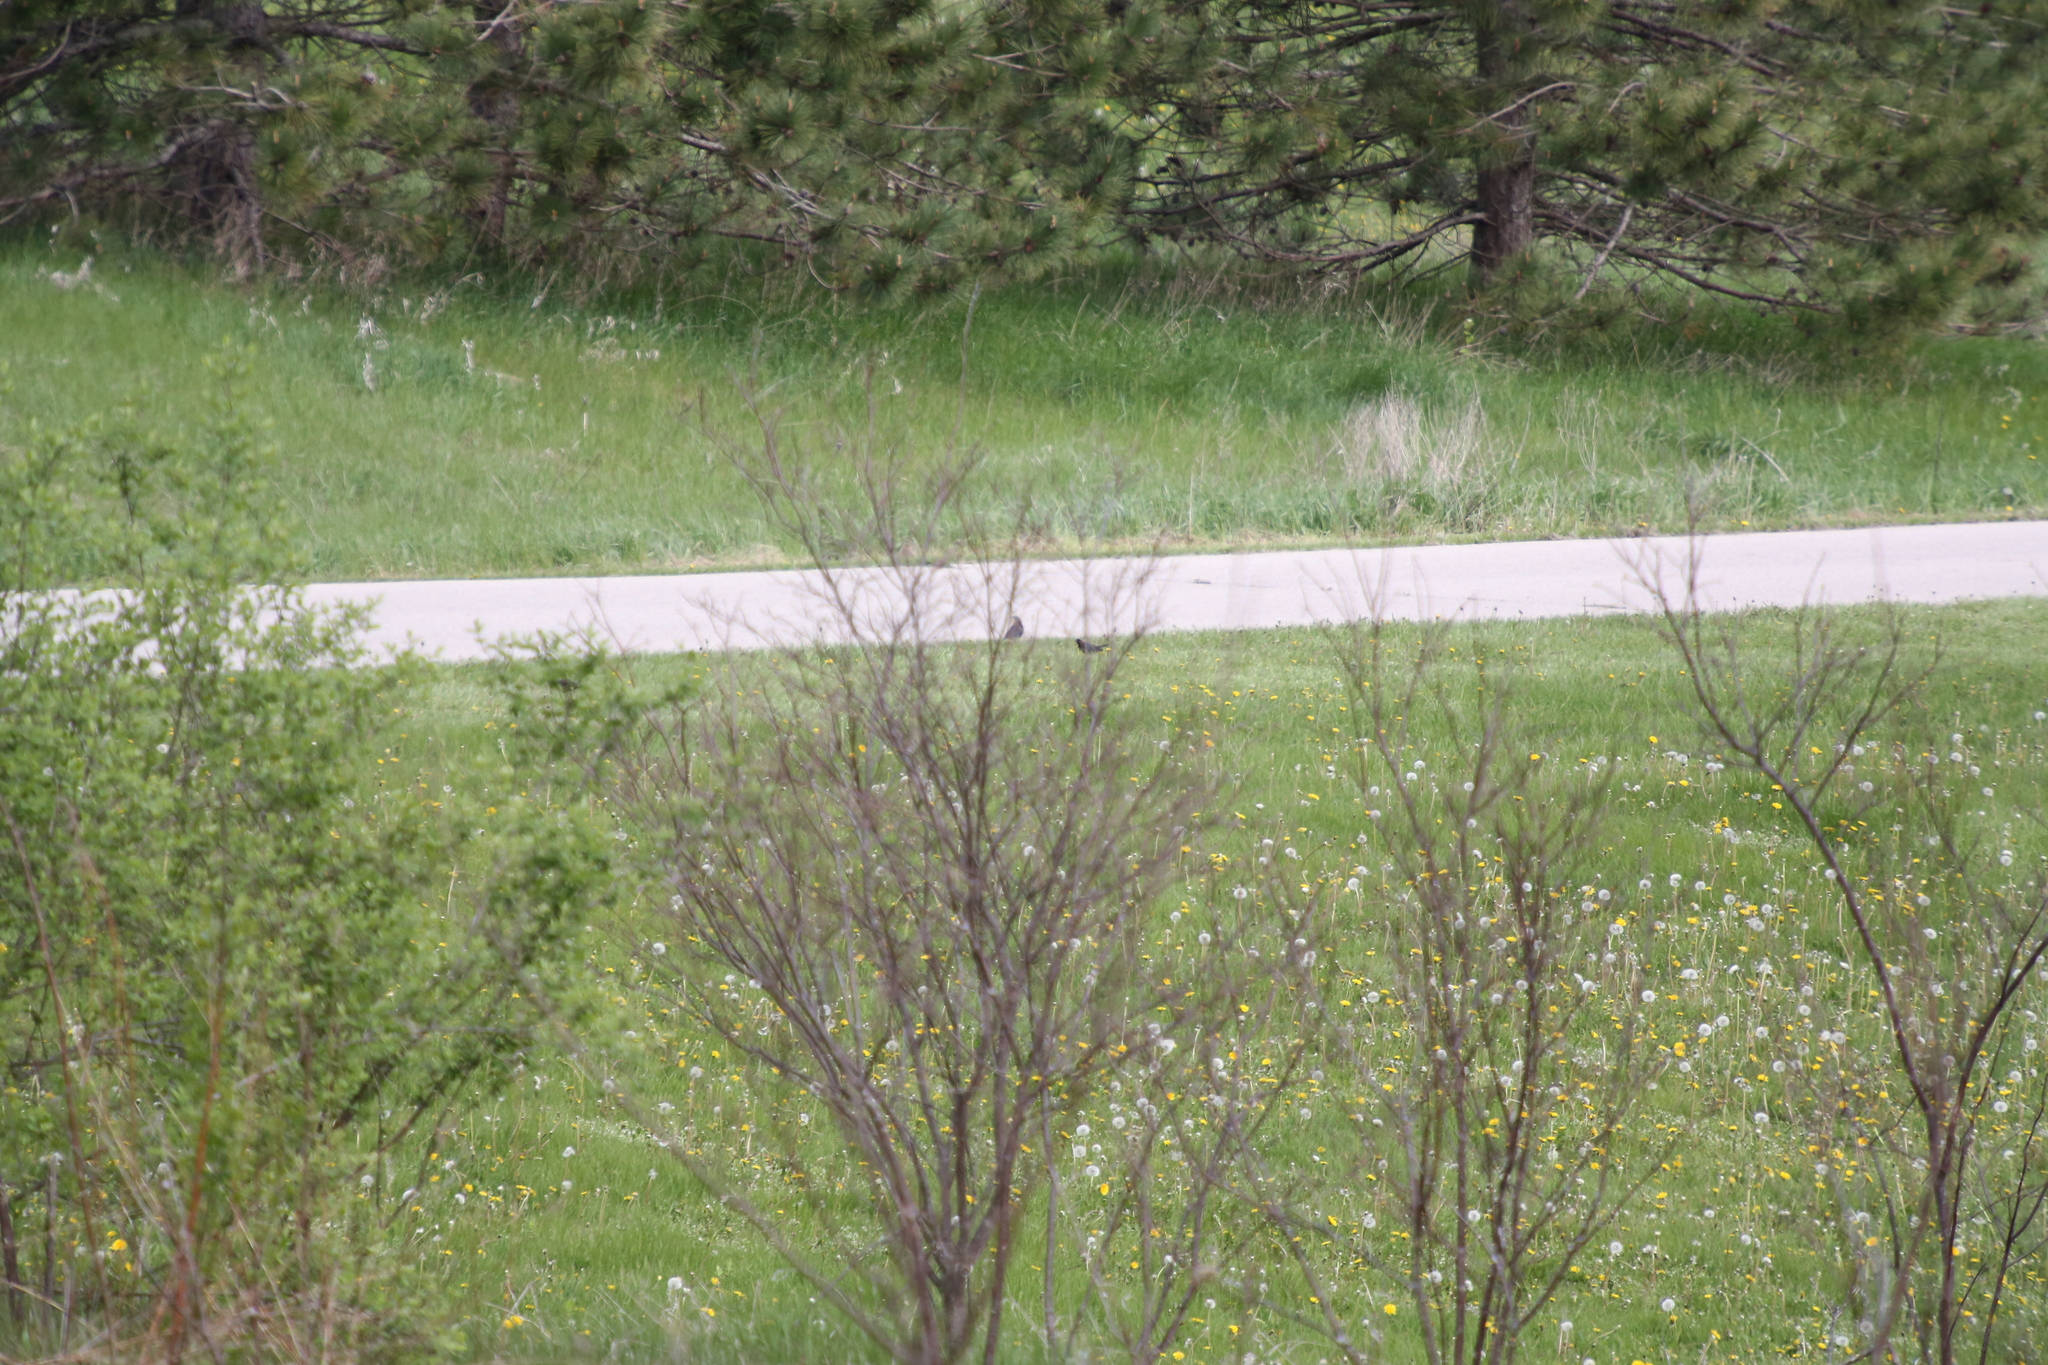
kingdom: Animalia
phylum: Chordata
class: Aves
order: Passeriformes
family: Icteridae
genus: Molothrus
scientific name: Molothrus ater
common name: Brown-headed cowbird
